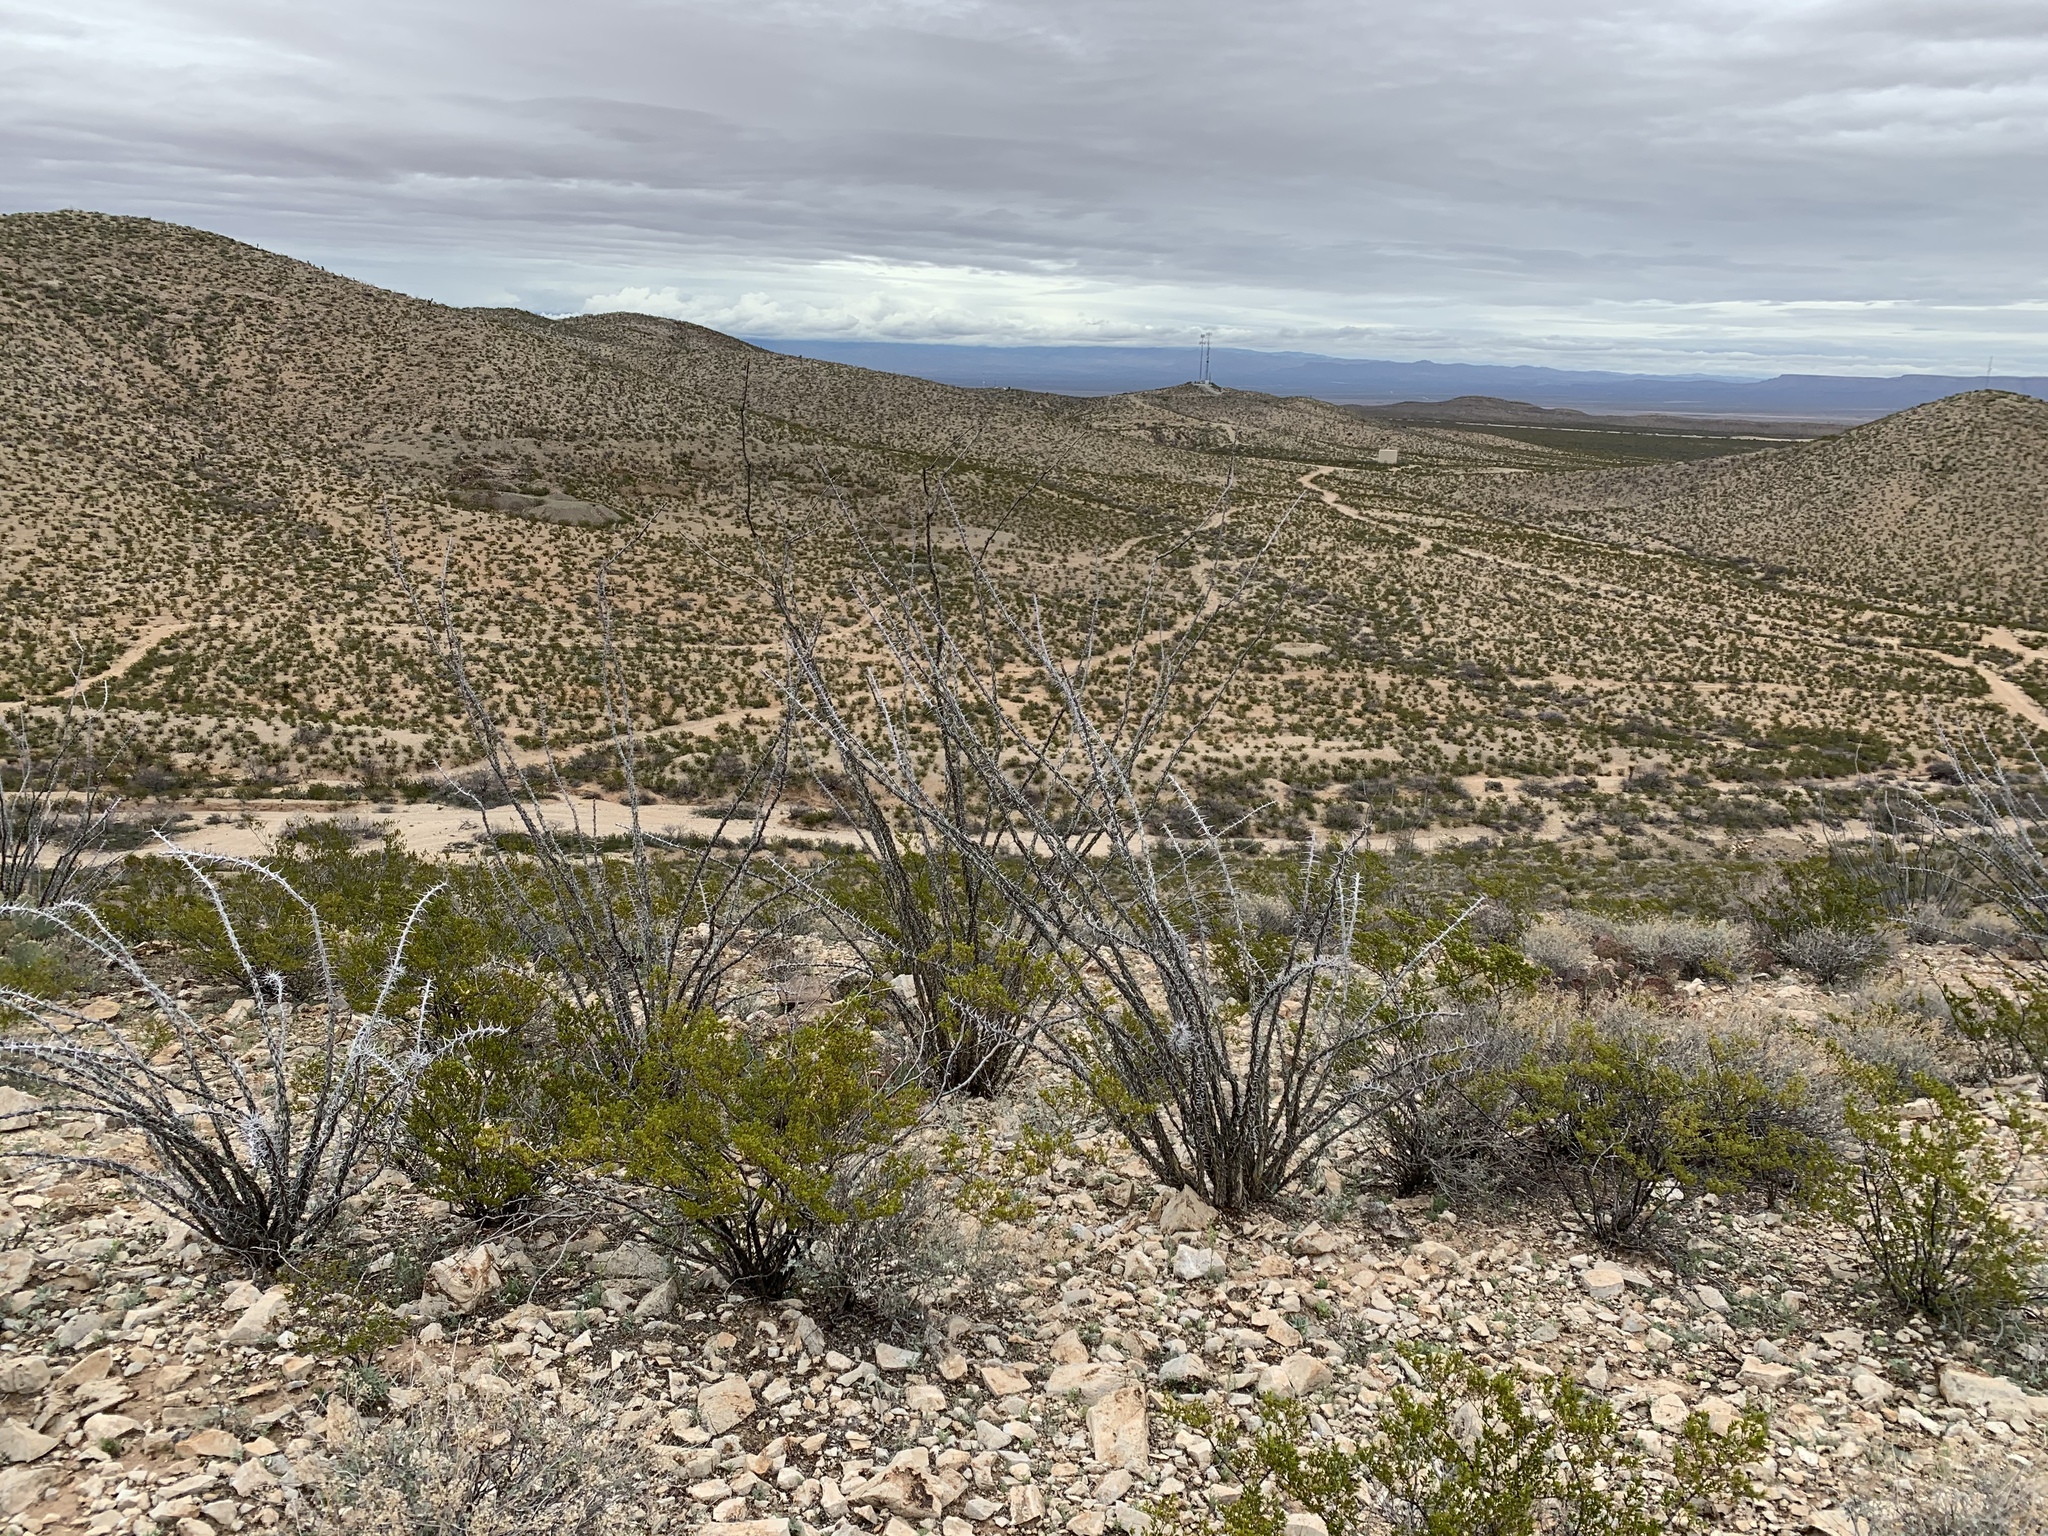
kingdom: Plantae
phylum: Tracheophyta
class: Magnoliopsida
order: Ericales
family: Fouquieriaceae
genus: Fouquieria
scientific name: Fouquieria splendens
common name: Vine-cactus
